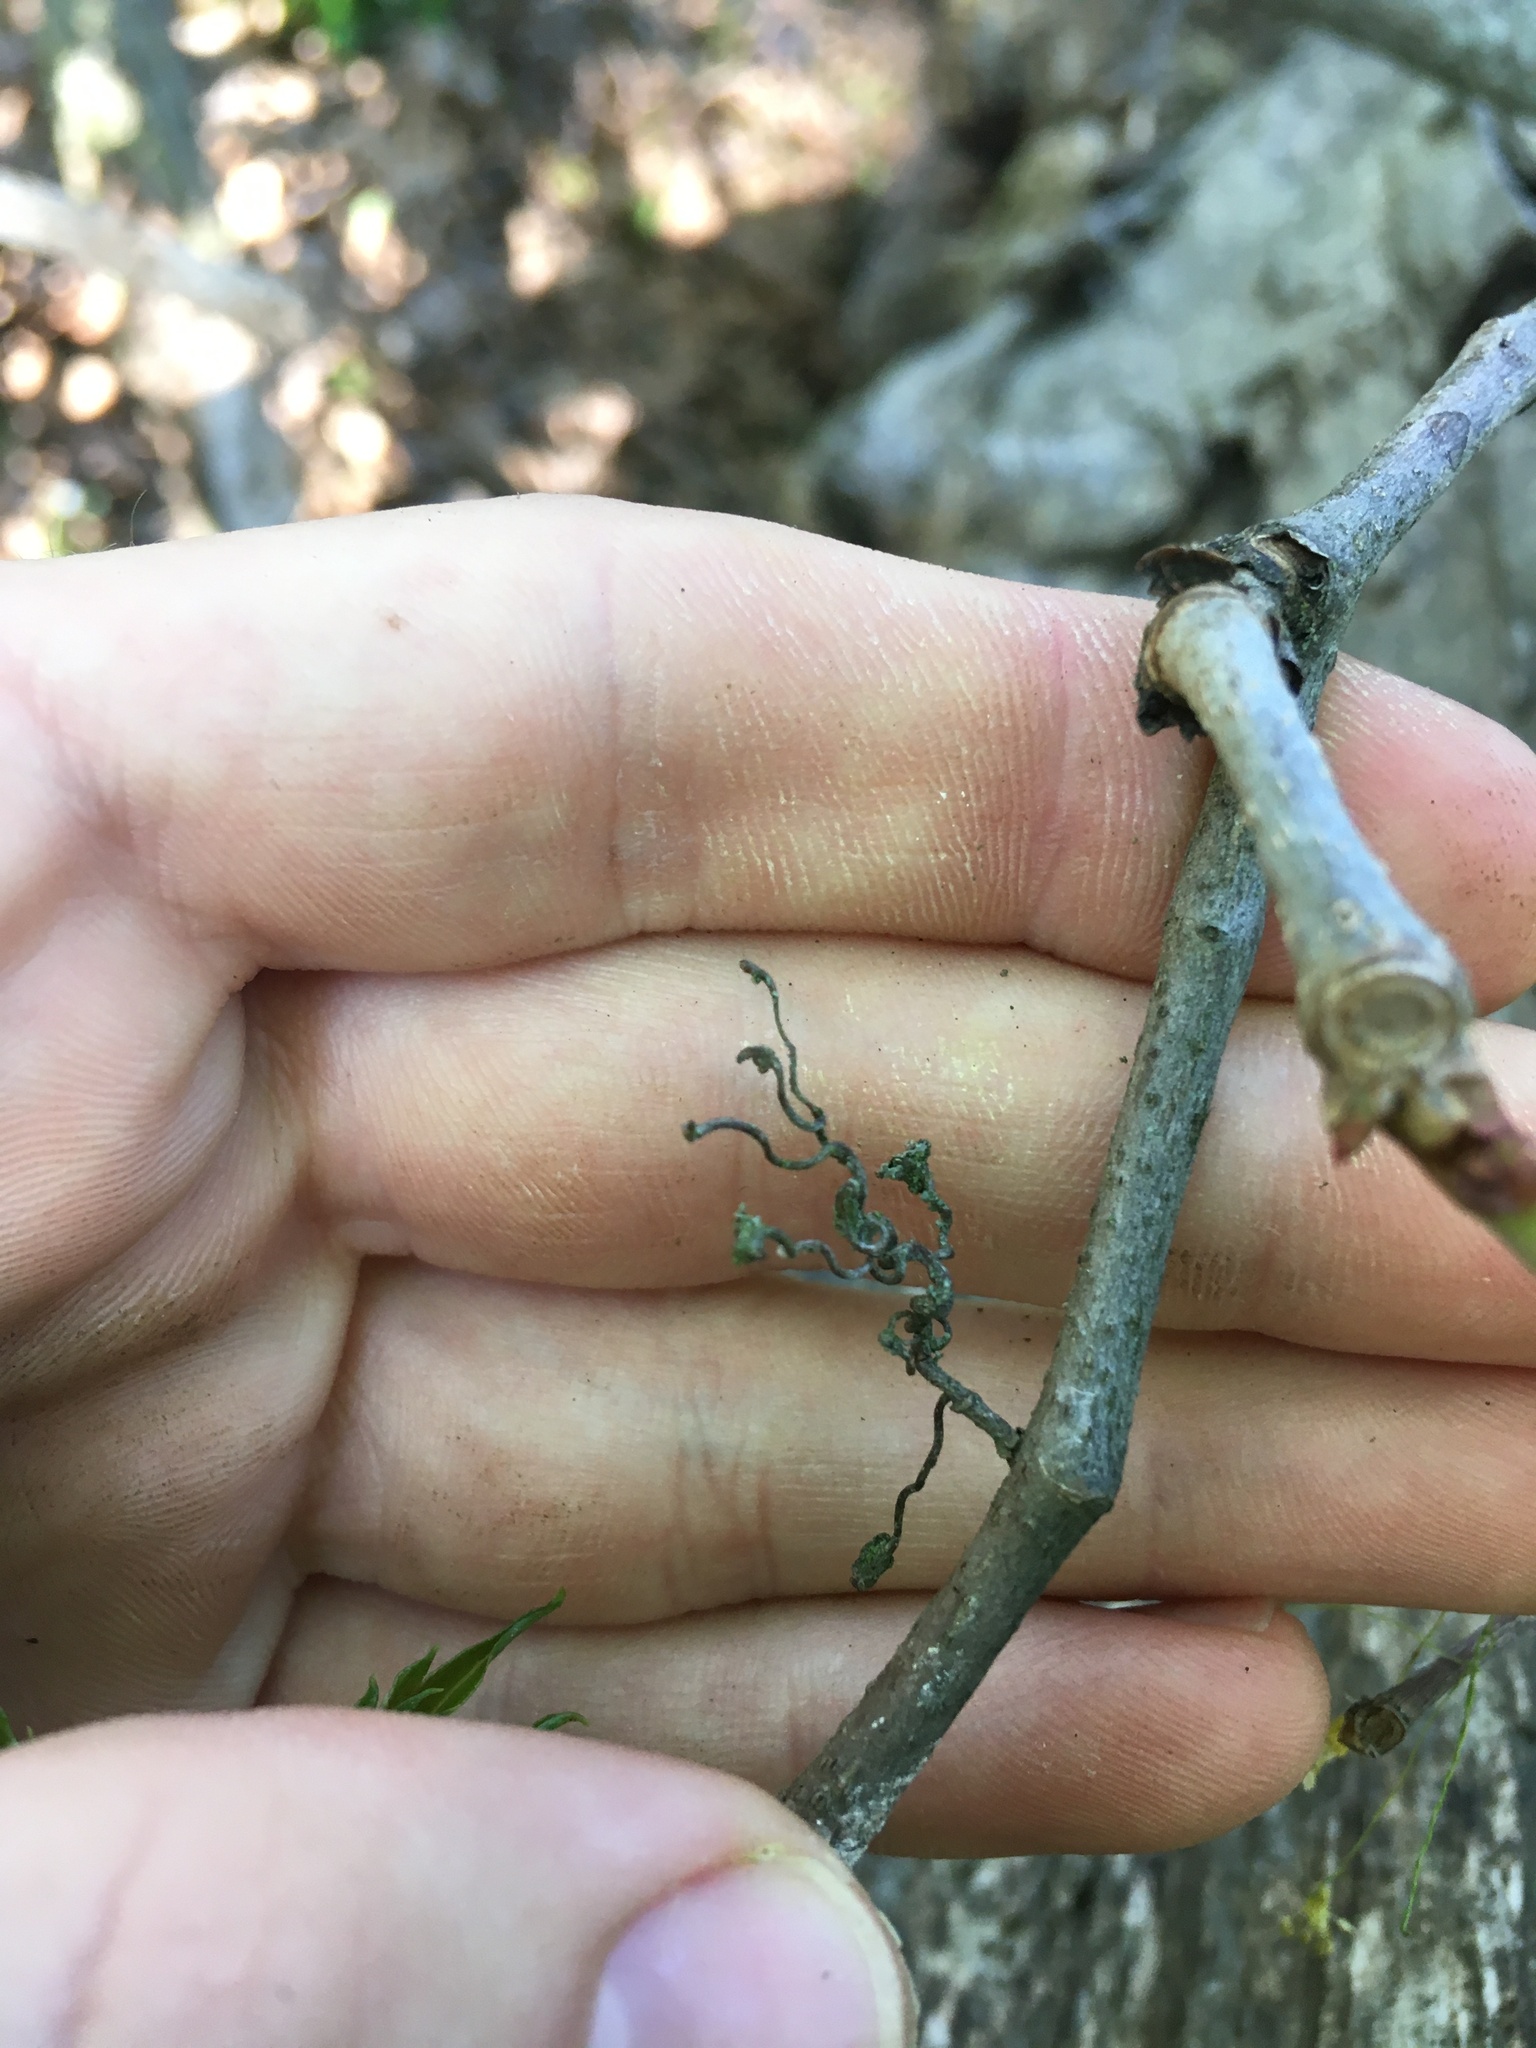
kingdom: Plantae
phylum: Tracheophyta
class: Magnoliopsida
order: Vitales
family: Vitaceae
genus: Parthenocissus
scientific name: Parthenocissus quinquefolia
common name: Virginia-creeper
